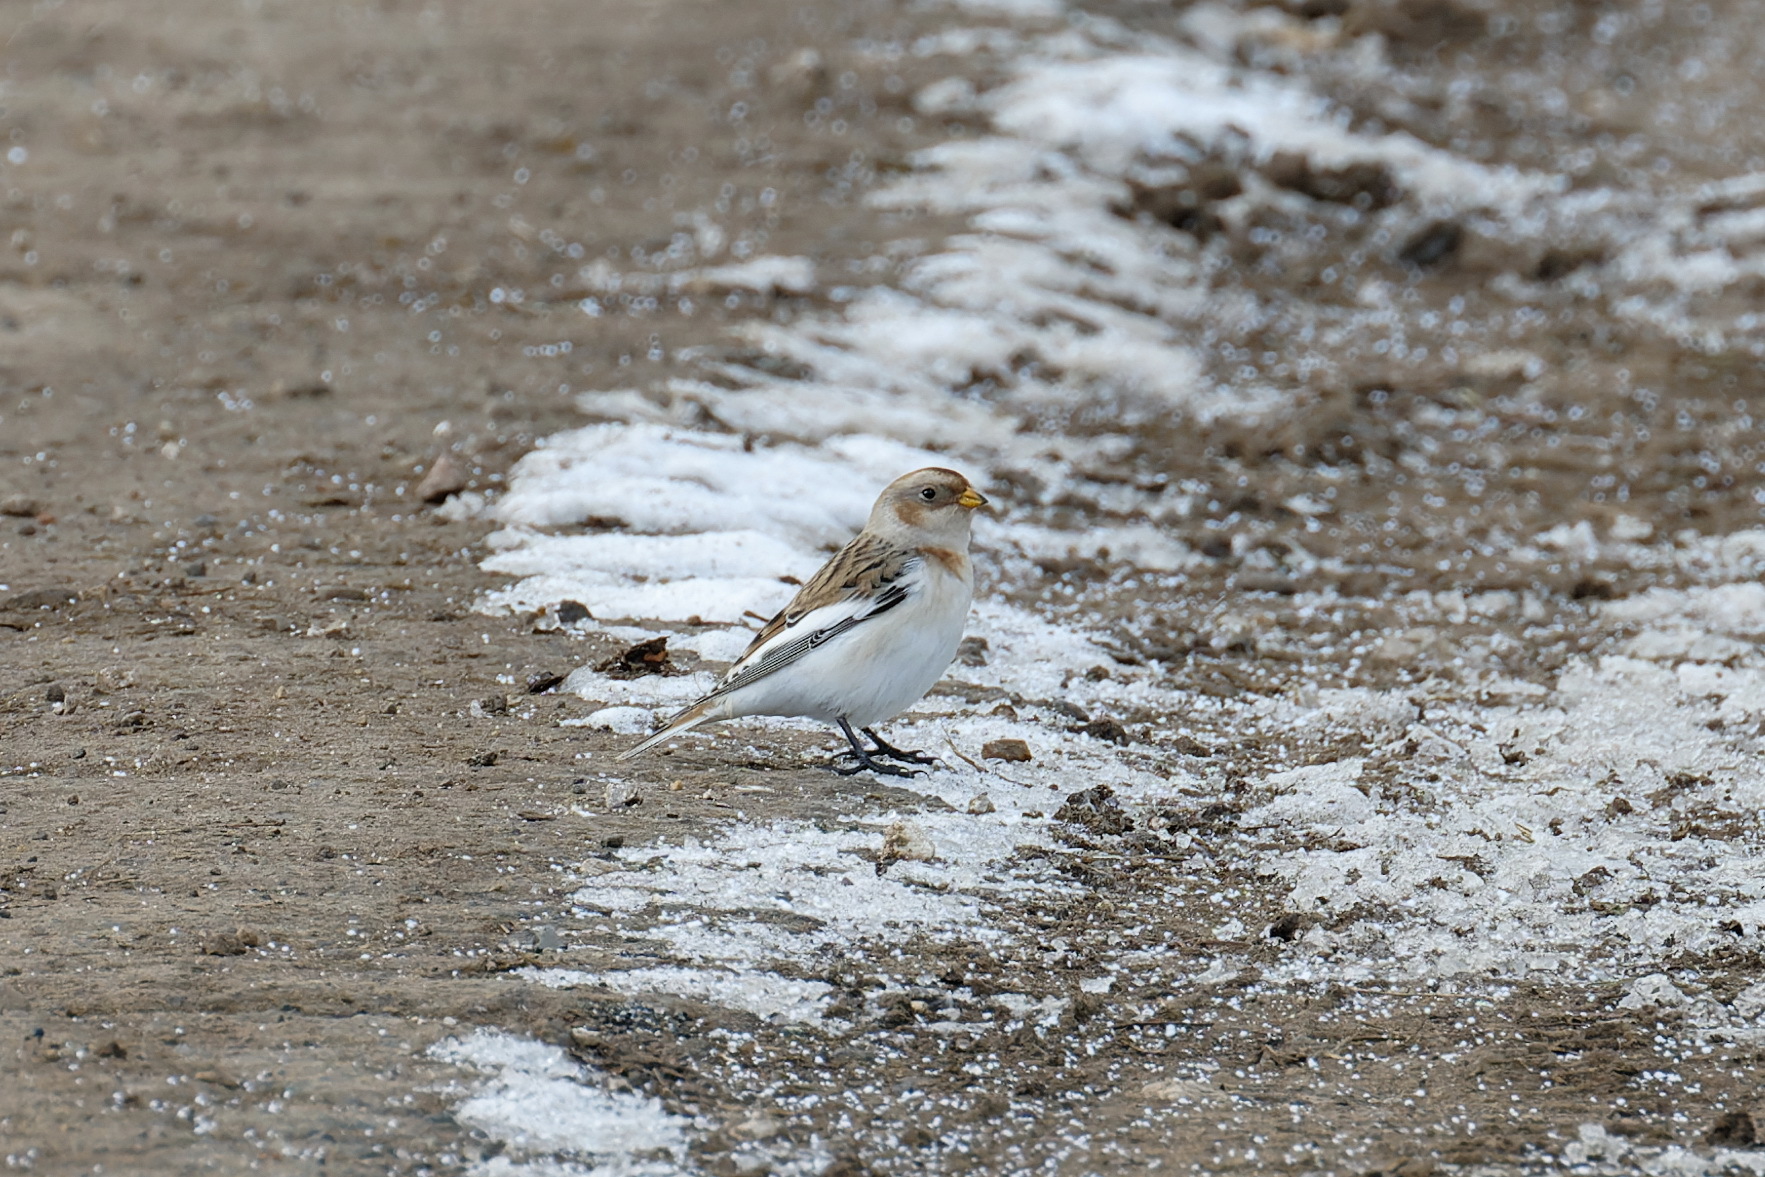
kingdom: Animalia
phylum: Chordata
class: Aves
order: Passeriformes
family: Calcariidae
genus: Plectrophenax
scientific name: Plectrophenax nivalis
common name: Snow bunting
